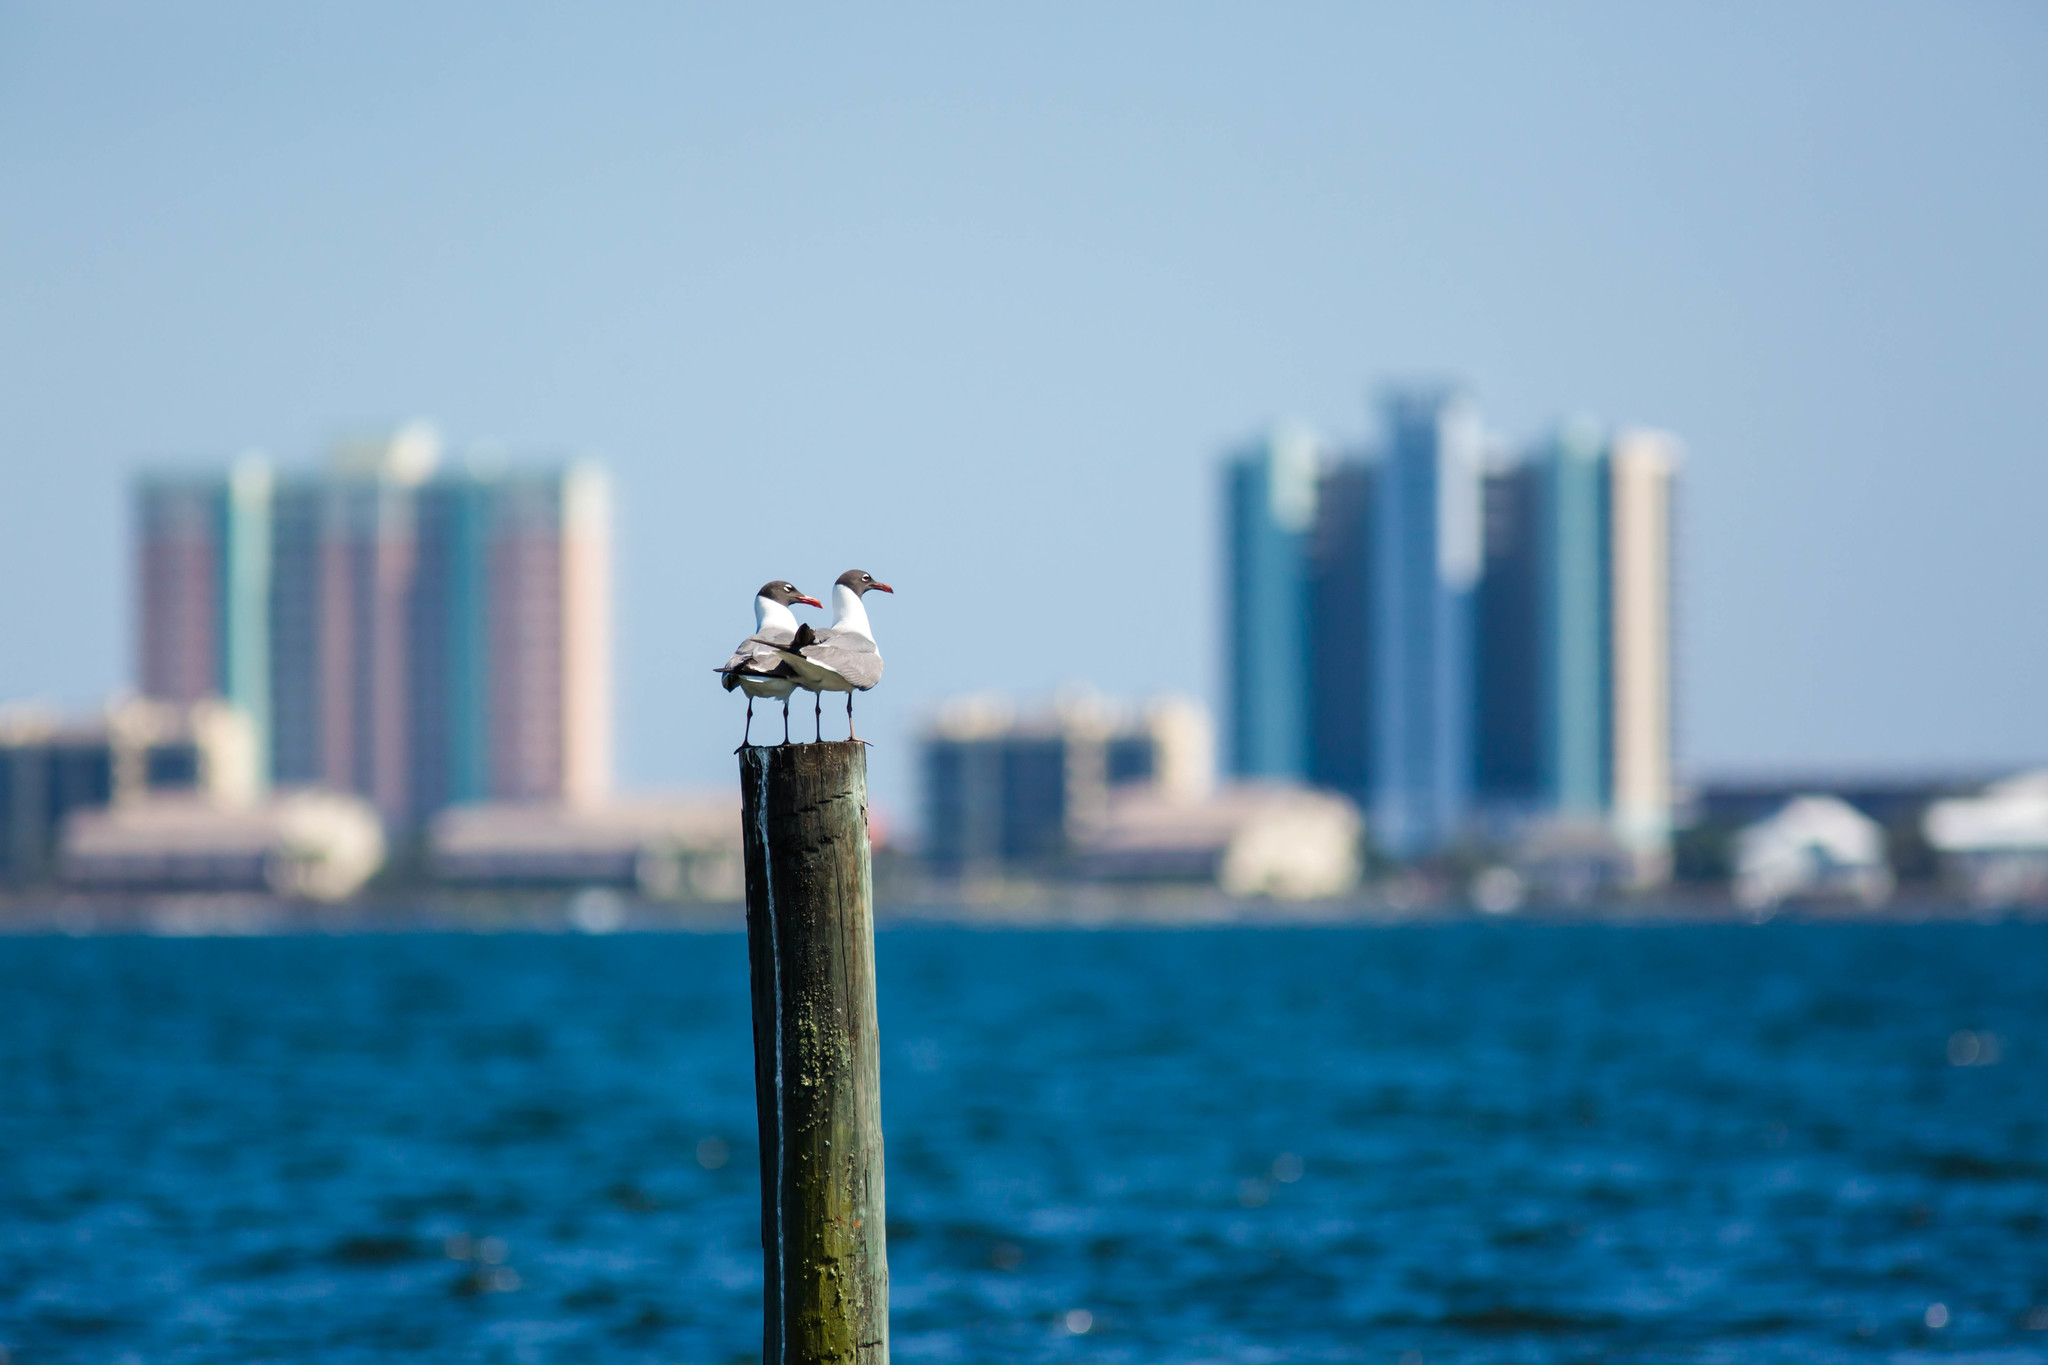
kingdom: Animalia
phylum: Chordata
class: Aves
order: Charadriiformes
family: Laridae
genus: Leucophaeus
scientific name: Leucophaeus atricilla
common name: Laughing gull
